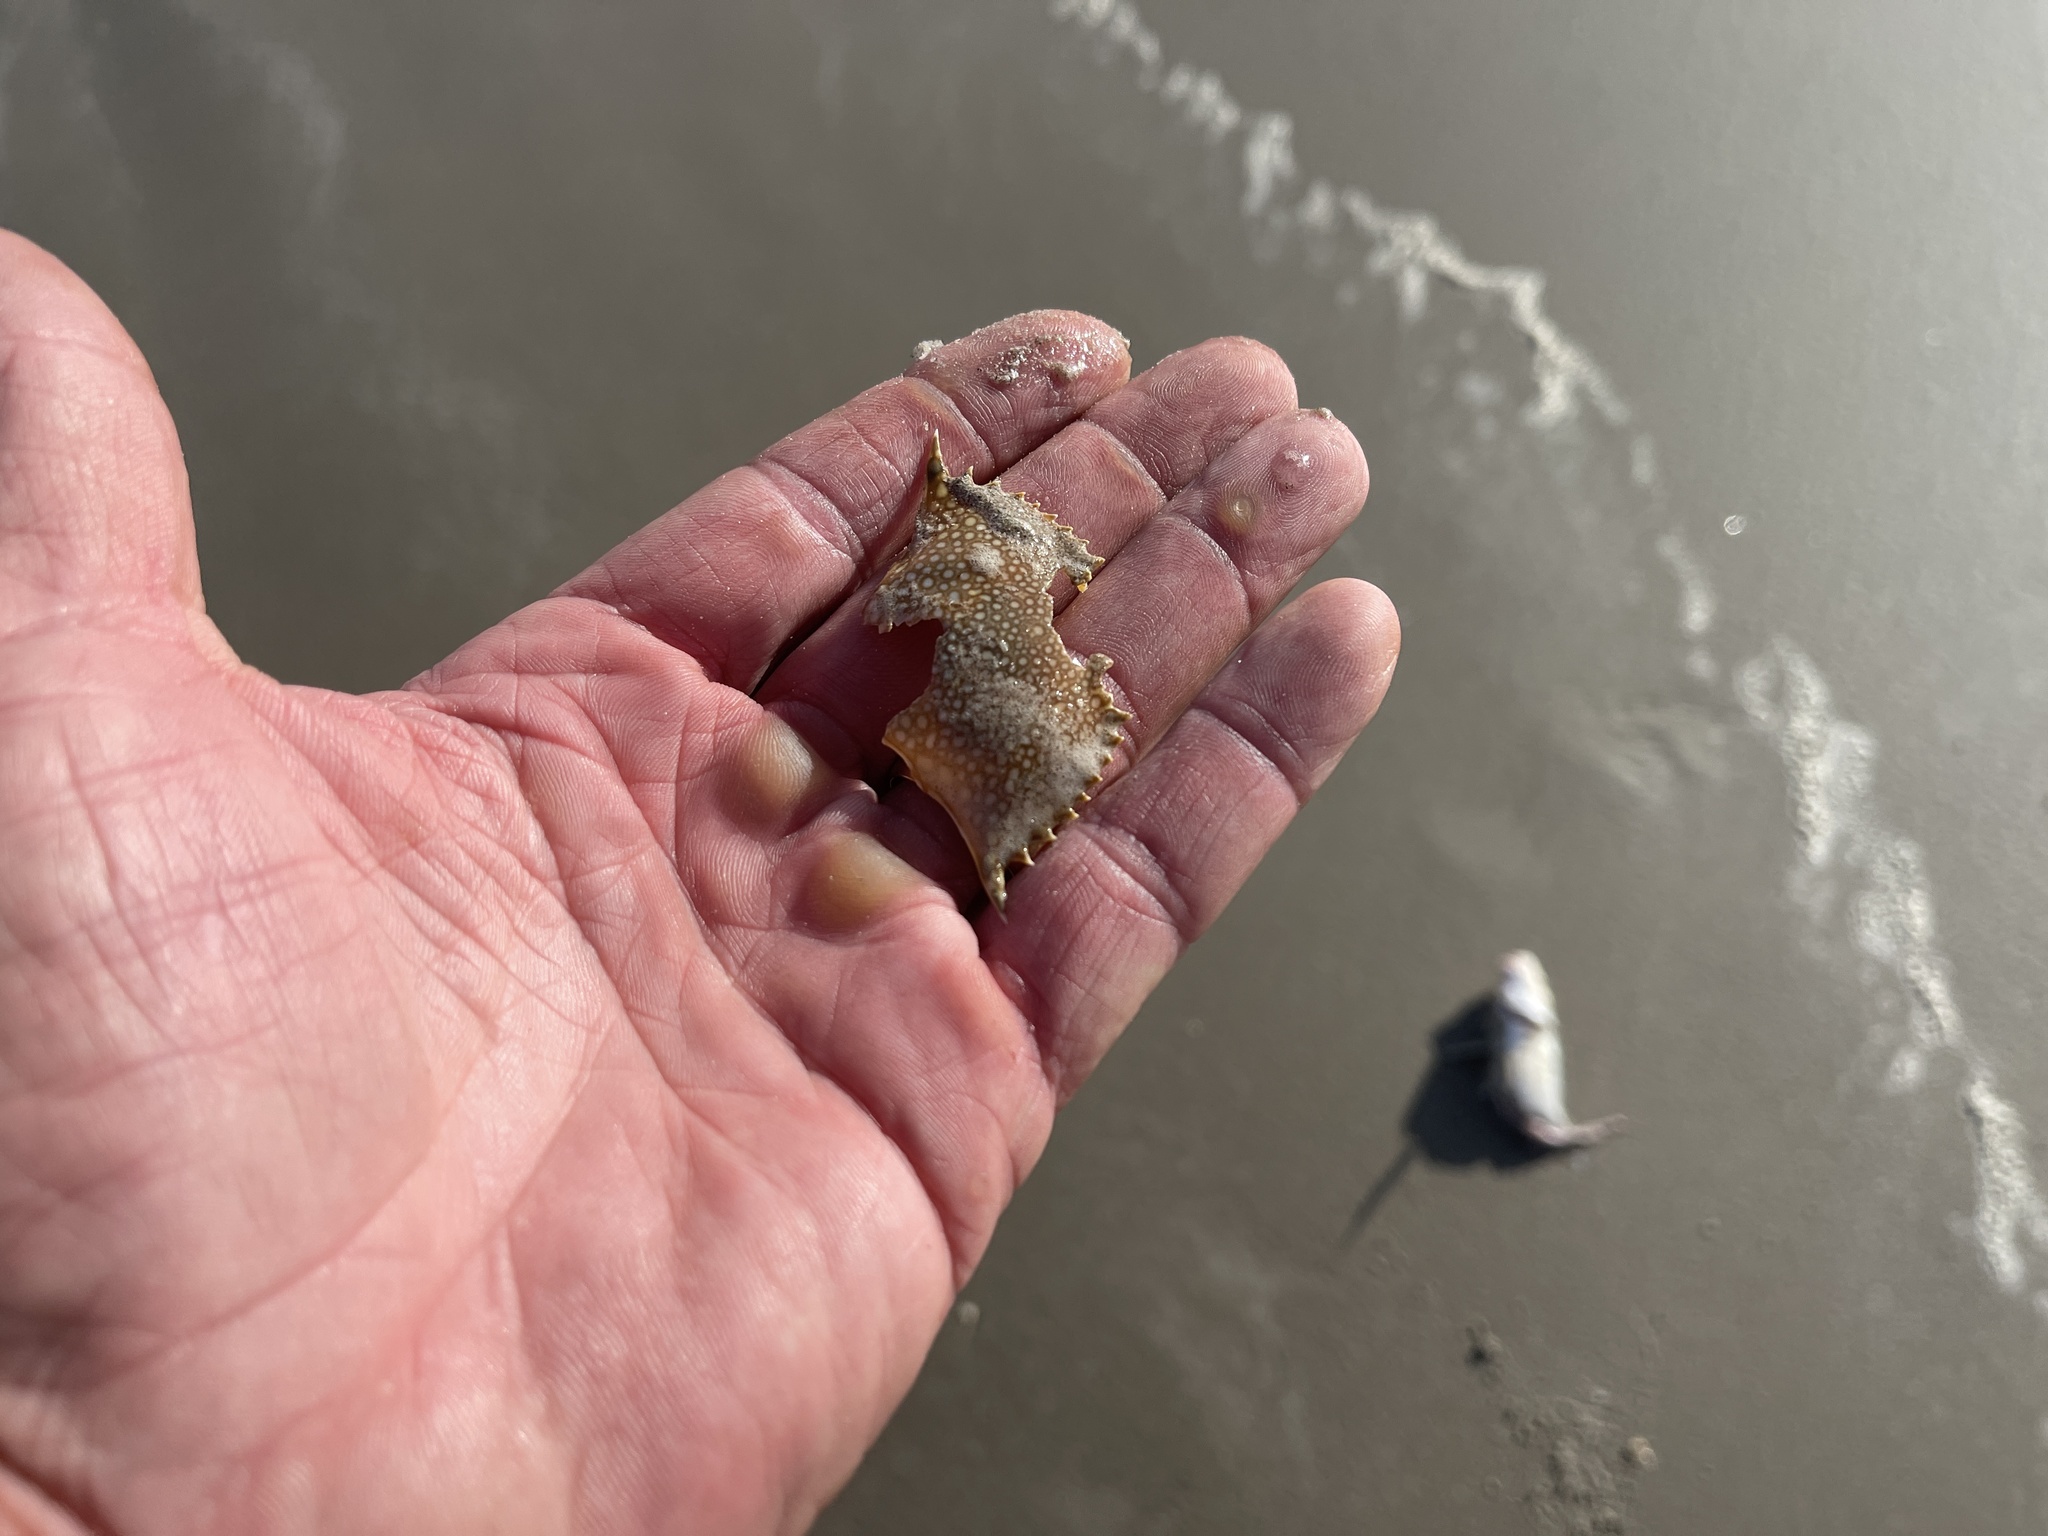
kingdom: Animalia
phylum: Arthropoda
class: Malacostraca
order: Decapoda
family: Portunidae
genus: Arenaeus
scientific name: Arenaeus cribrarius
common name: Speckled crab
